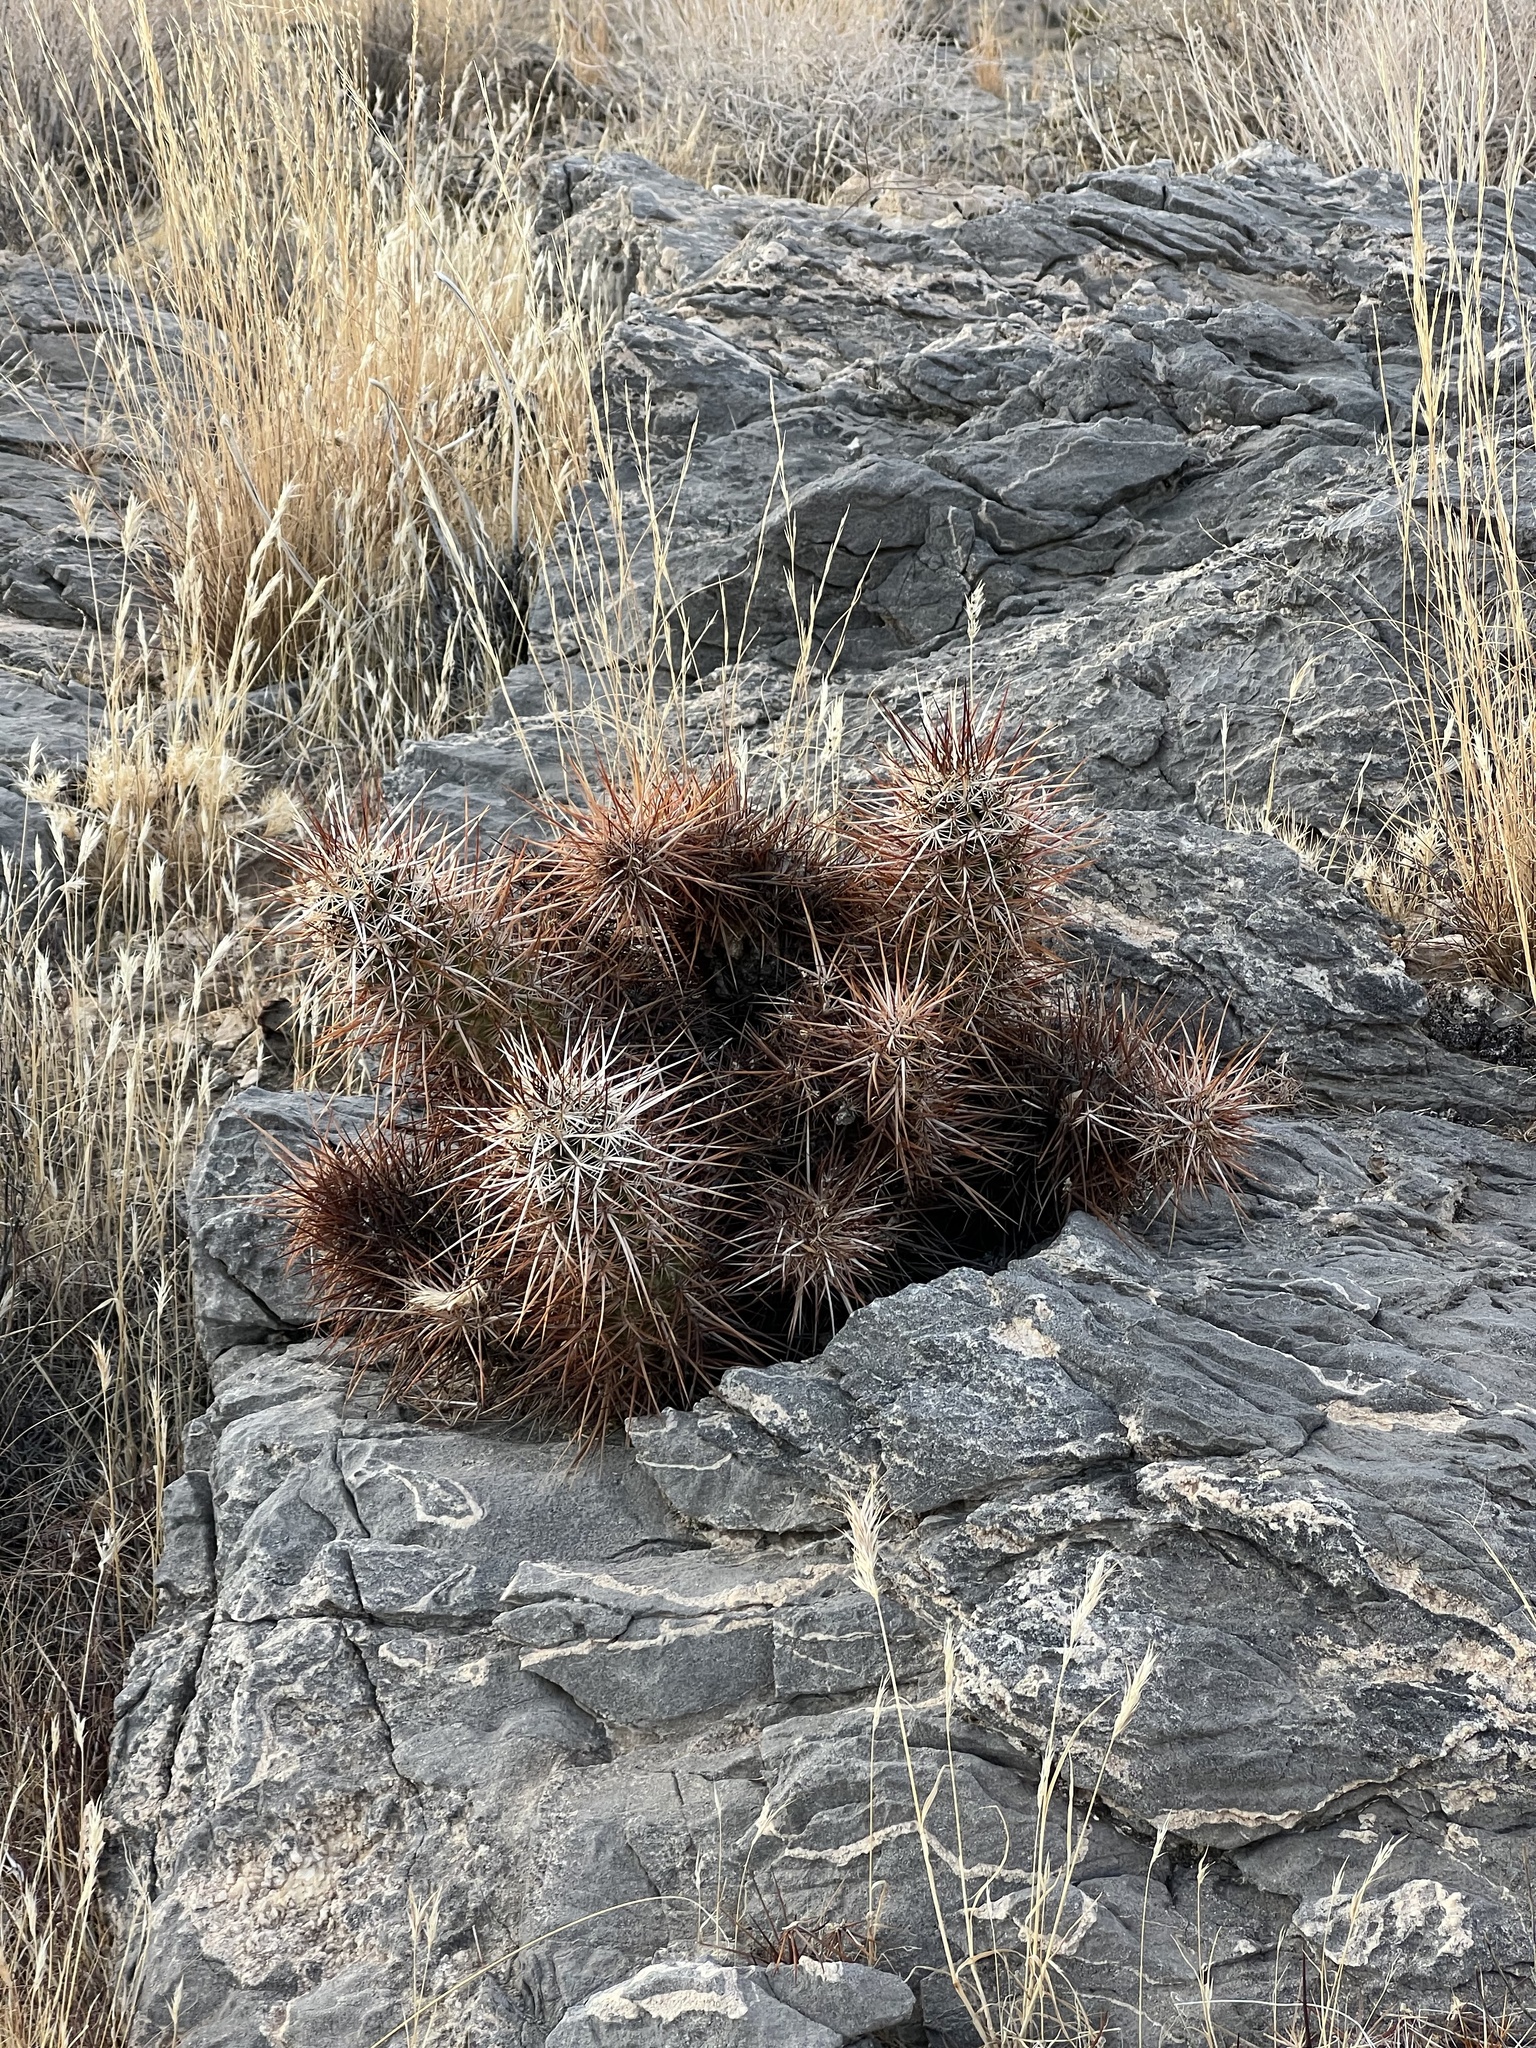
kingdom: Plantae
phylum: Tracheophyta
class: Magnoliopsida
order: Caryophyllales
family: Cactaceae
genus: Echinocereus
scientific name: Echinocereus engelmannii
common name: Engelmann's hedgehog cactus
